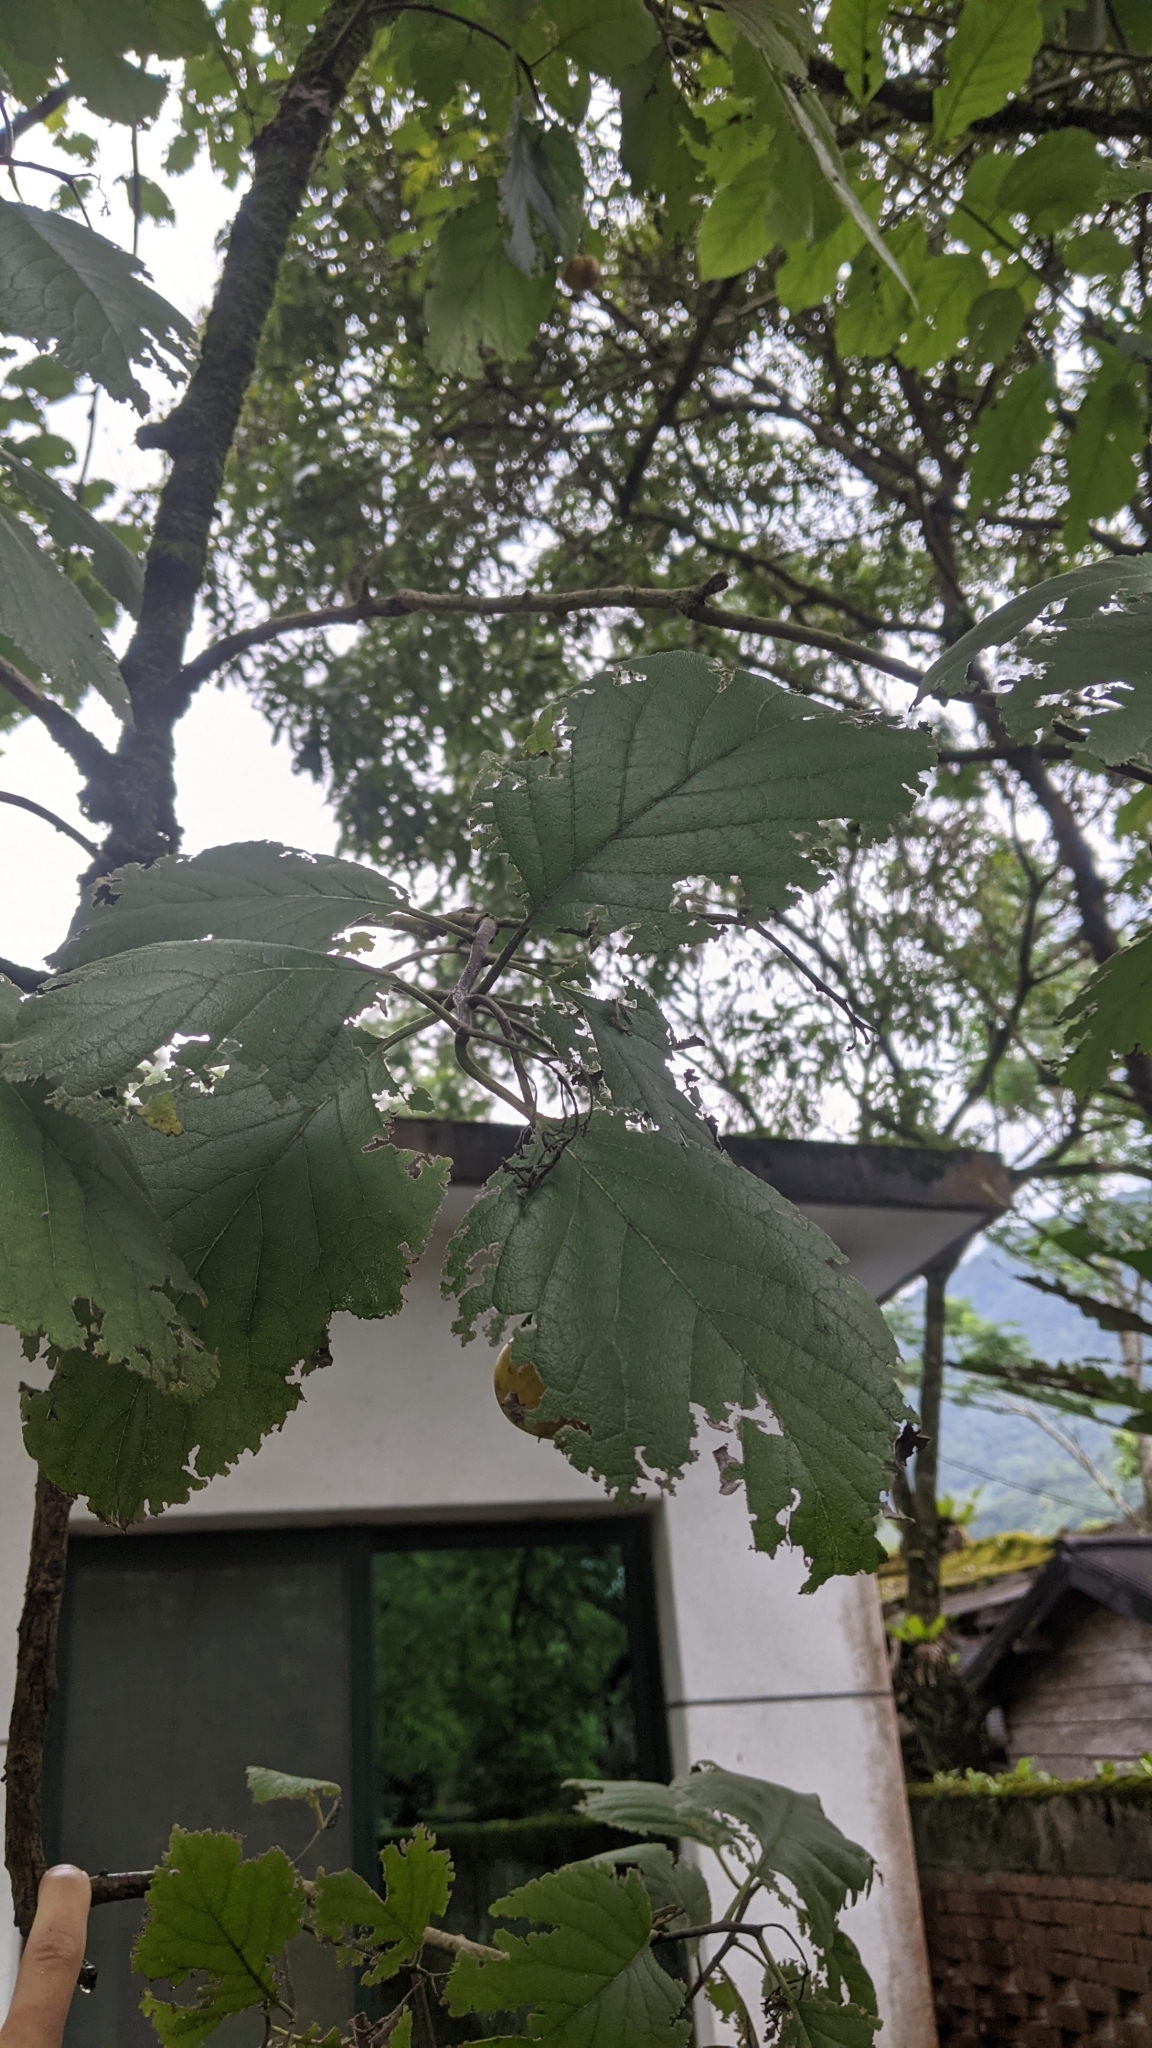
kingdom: Plantae
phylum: Tracheophyta
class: Magnoliopsida
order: Boraginales
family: Ehretiaceae
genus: Ehretia
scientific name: Ehretia dicksonii
